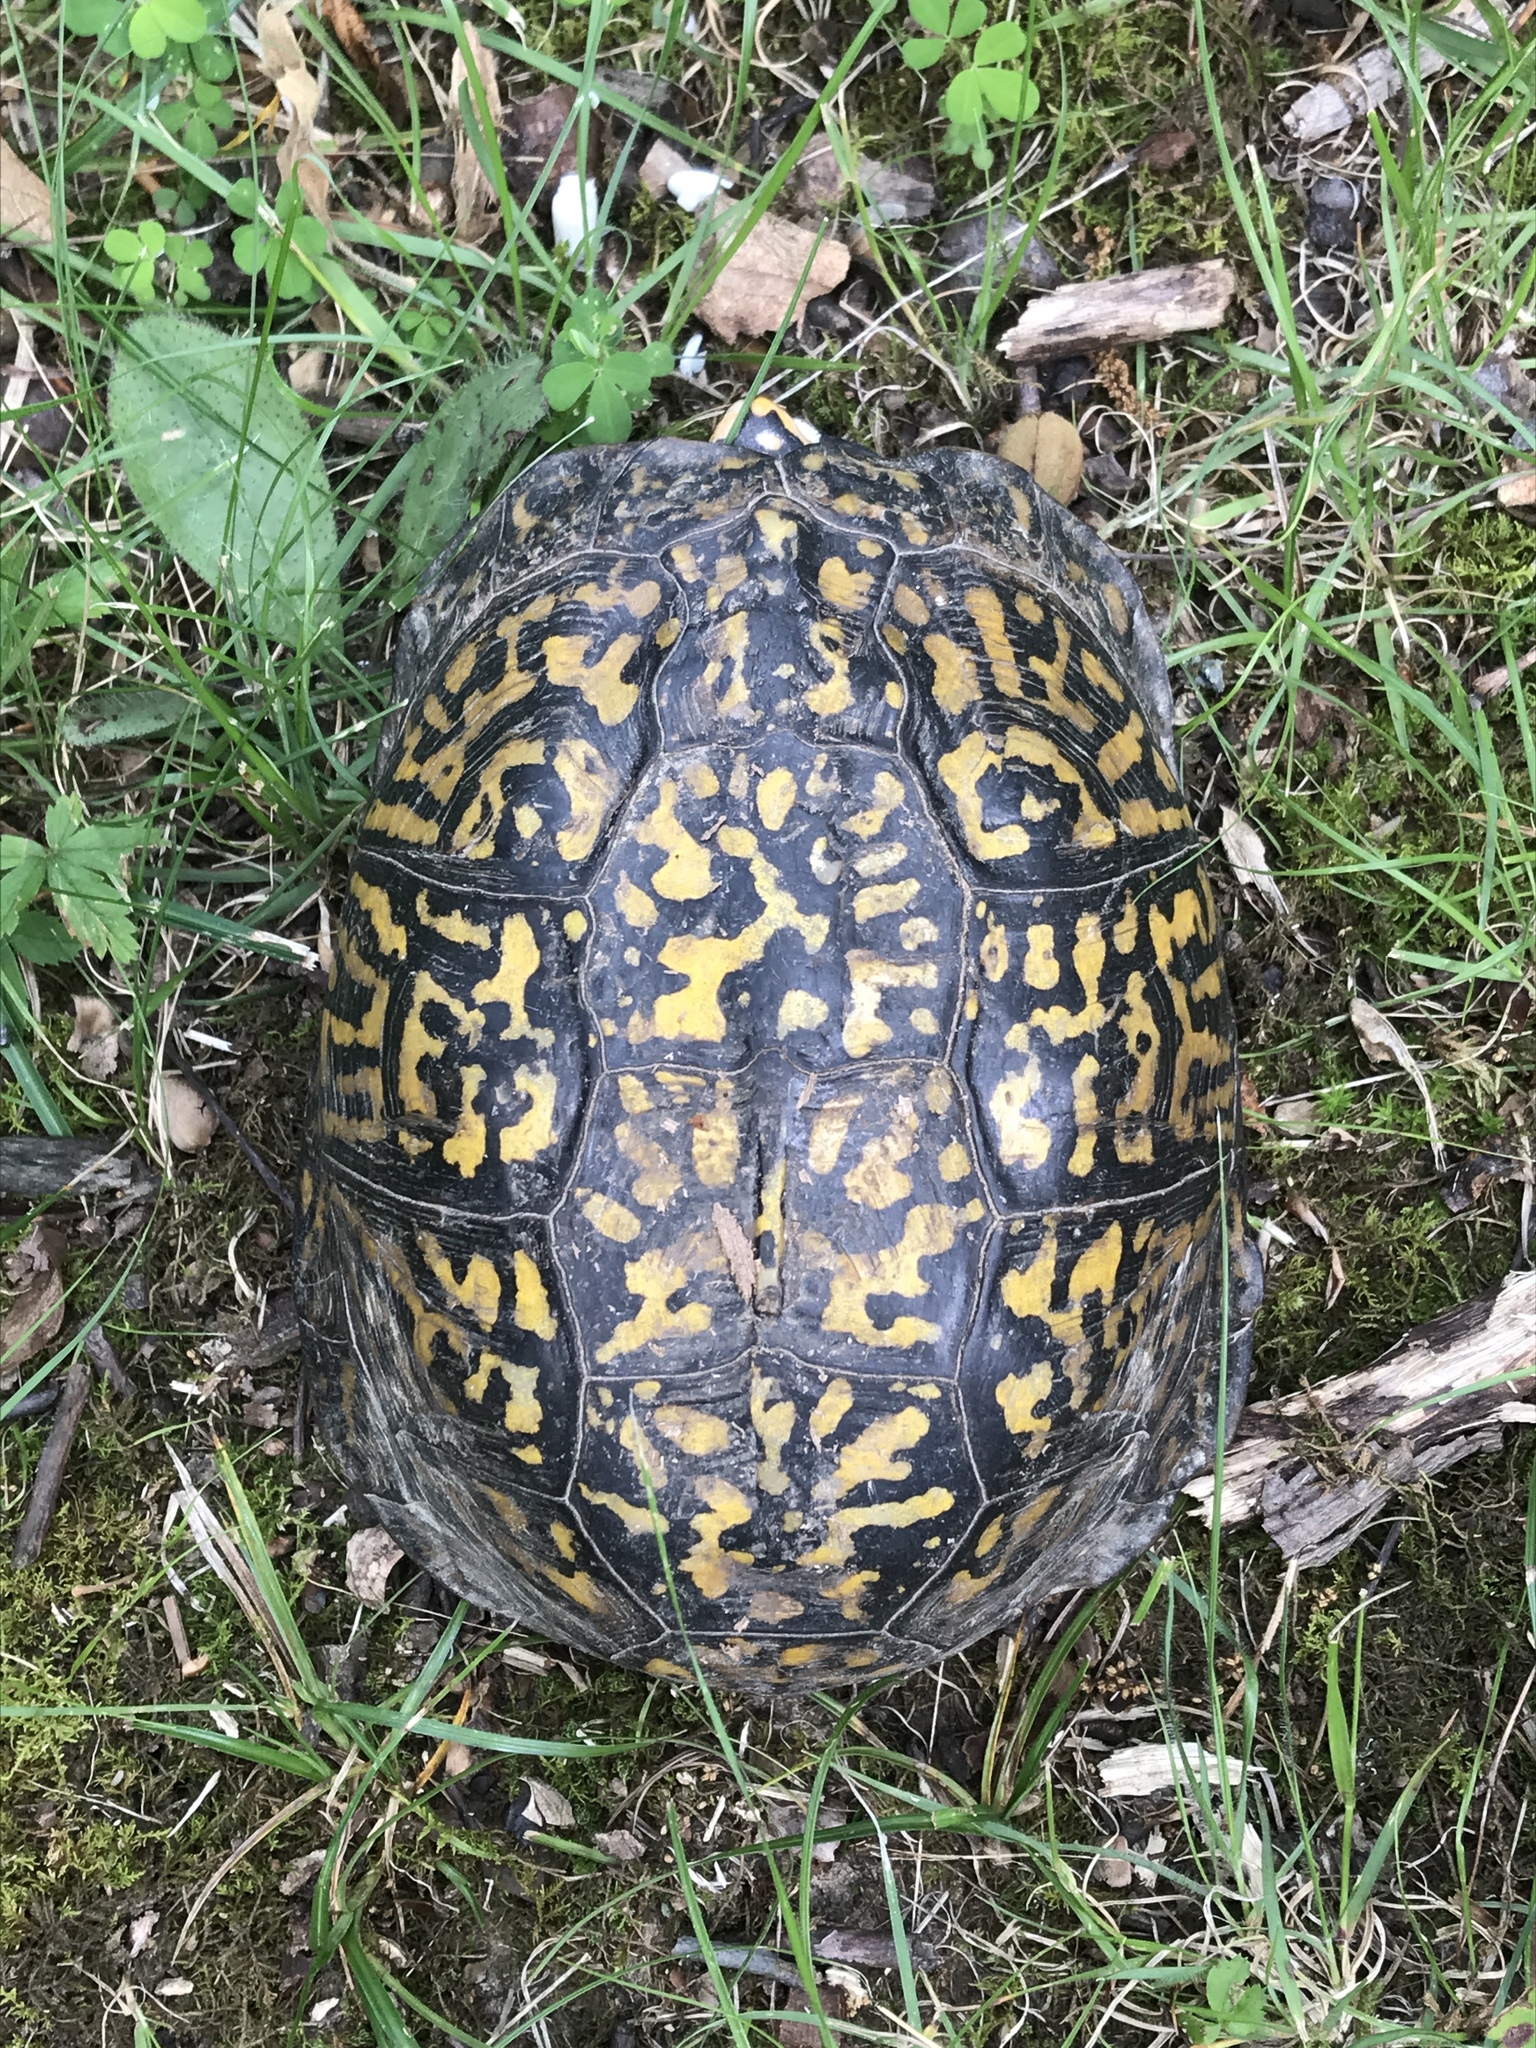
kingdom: Animalia
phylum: Chordata
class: Testudines
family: Emydidae
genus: Terrapene
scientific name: Terrapene carolina
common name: Common box turtle
